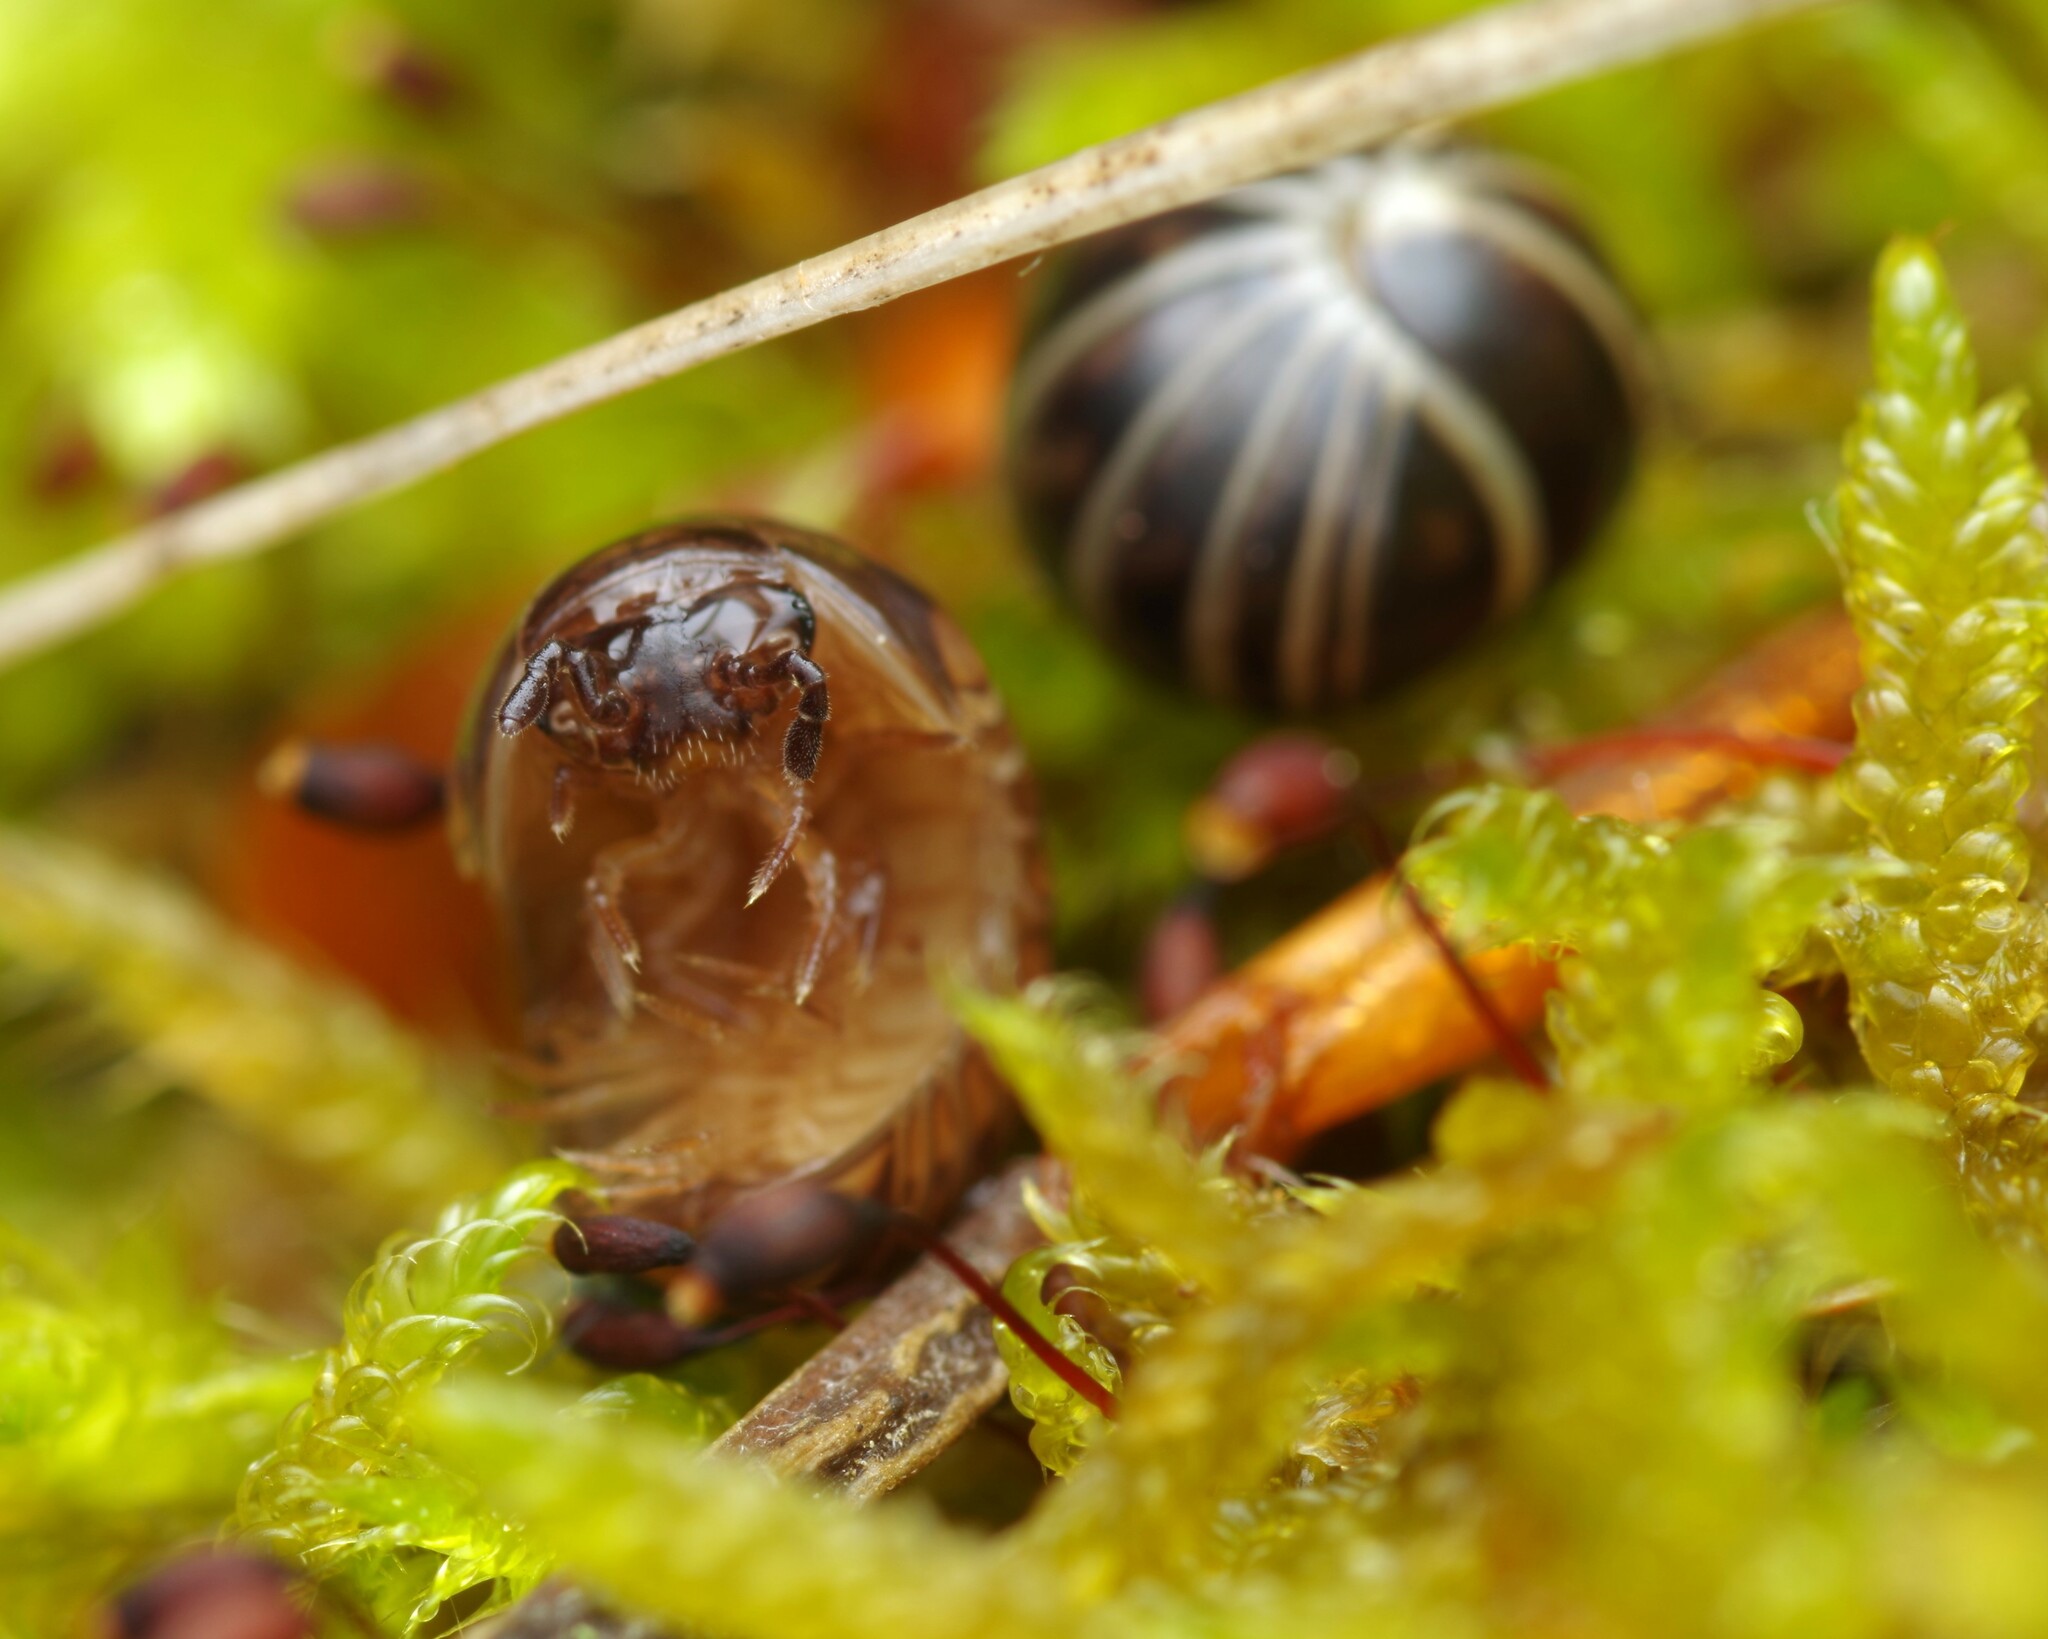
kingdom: Animalia
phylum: Arthropoda
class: Diplopoda
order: Glomerida
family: Glomeridae
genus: Glomeris
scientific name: Glomeris intermedia
